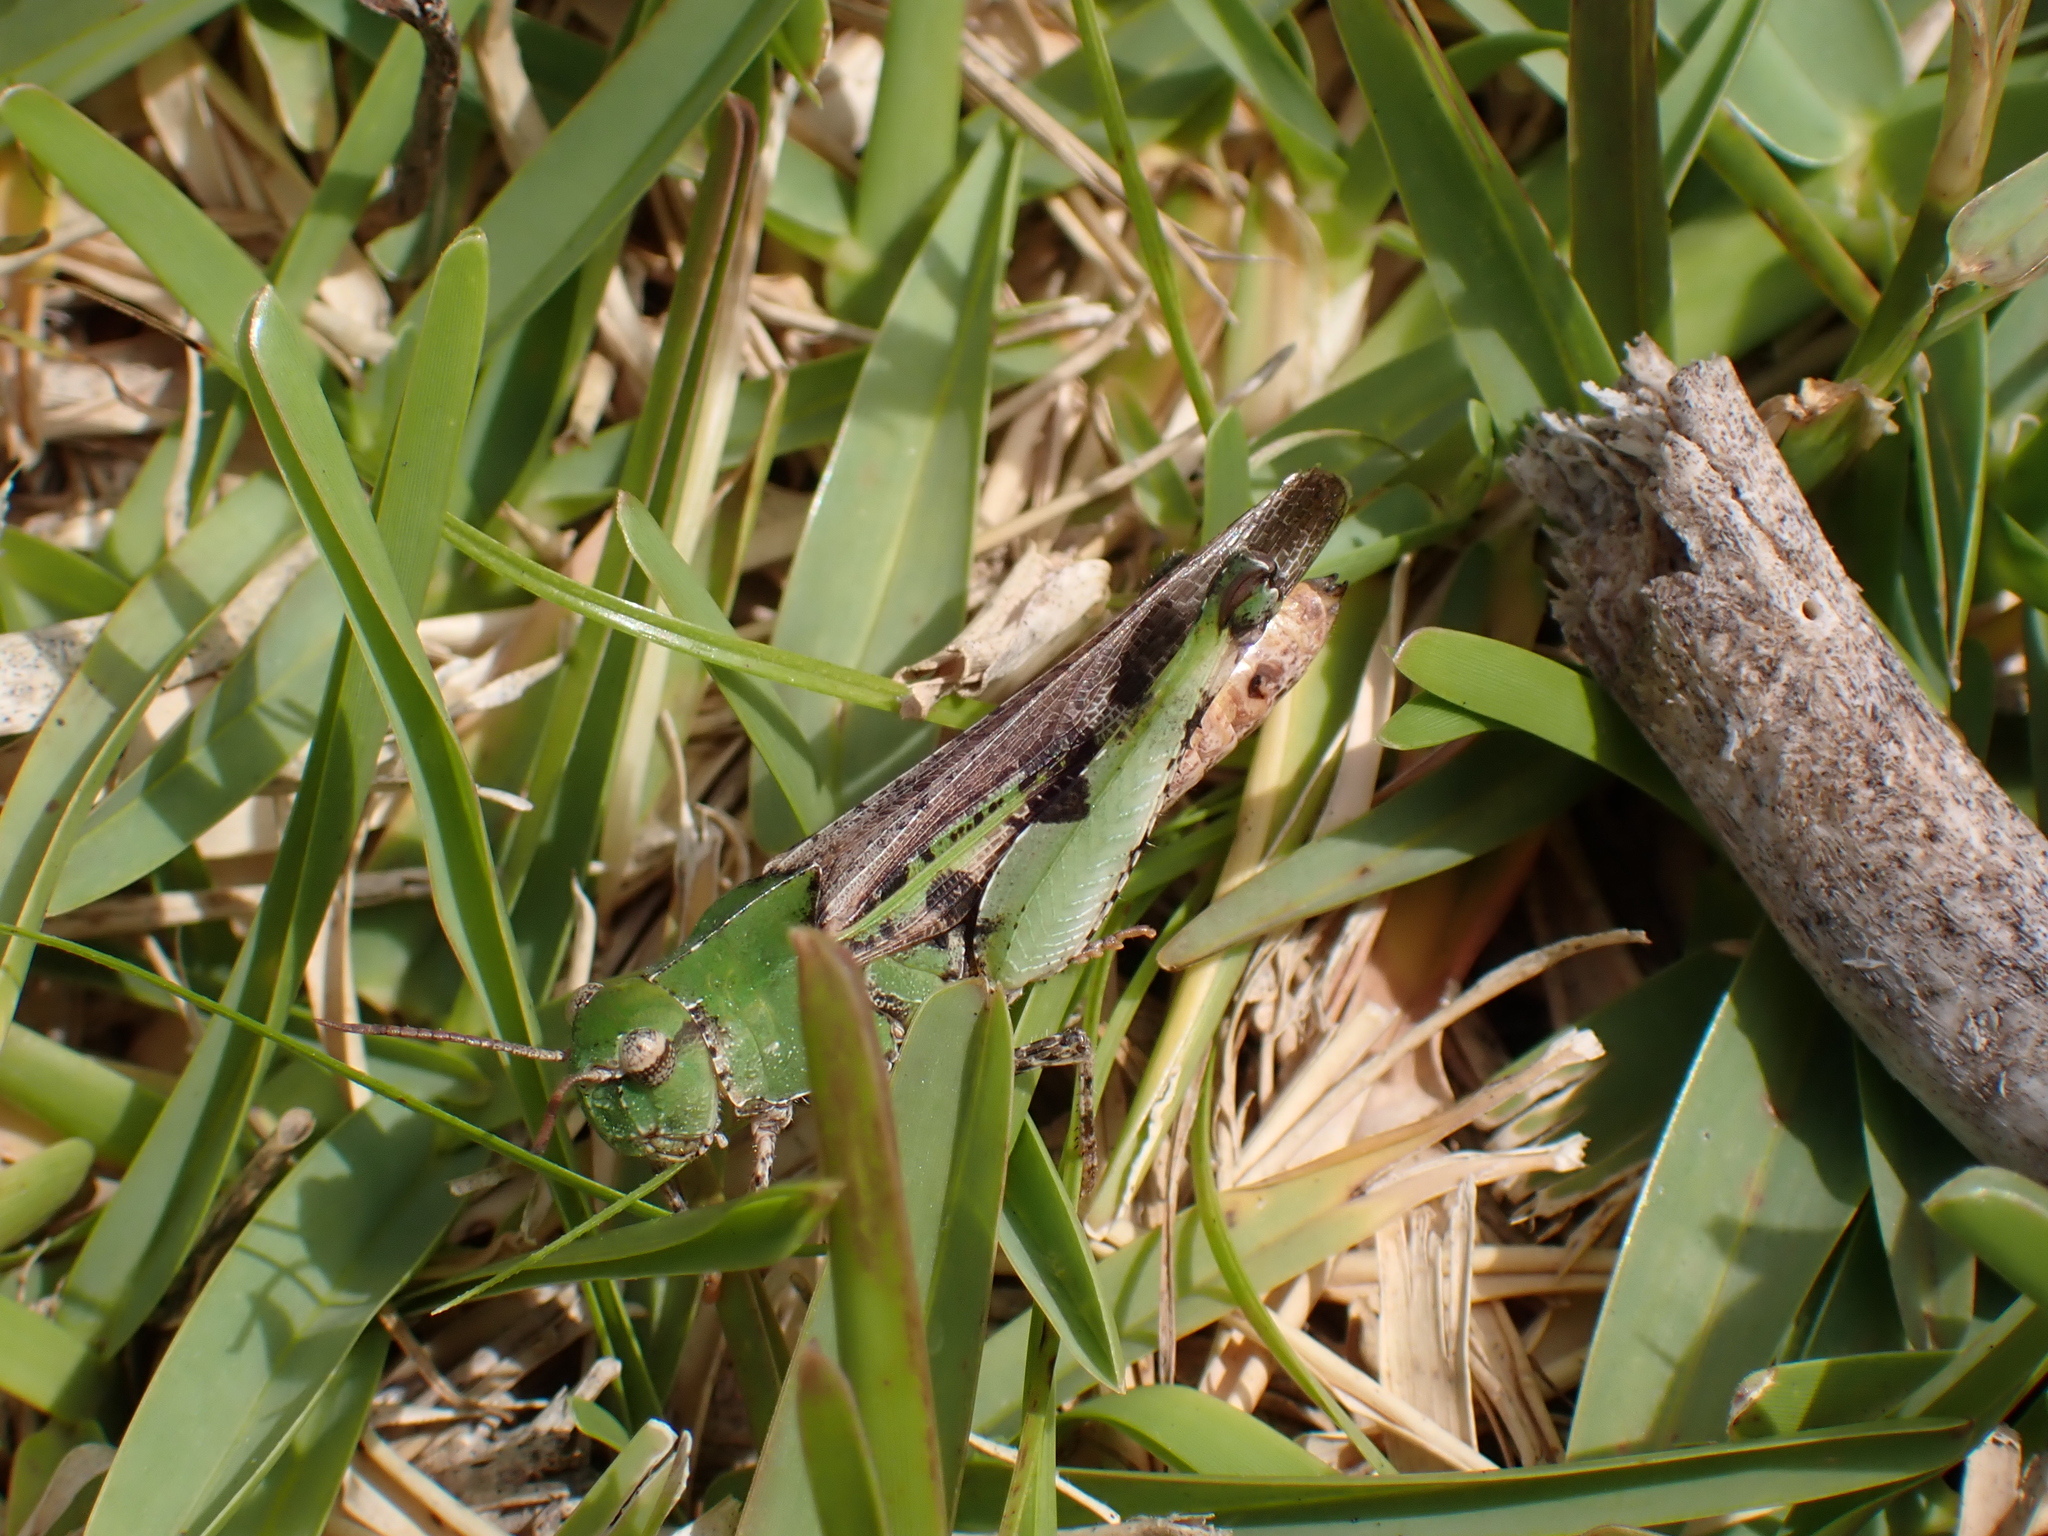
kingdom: Animalia
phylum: Arthropoda
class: Insecta
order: Orthoptera
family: Acrididae
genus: Chortophaga
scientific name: Chortophaga australior
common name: Southern green-striped grasshopper
